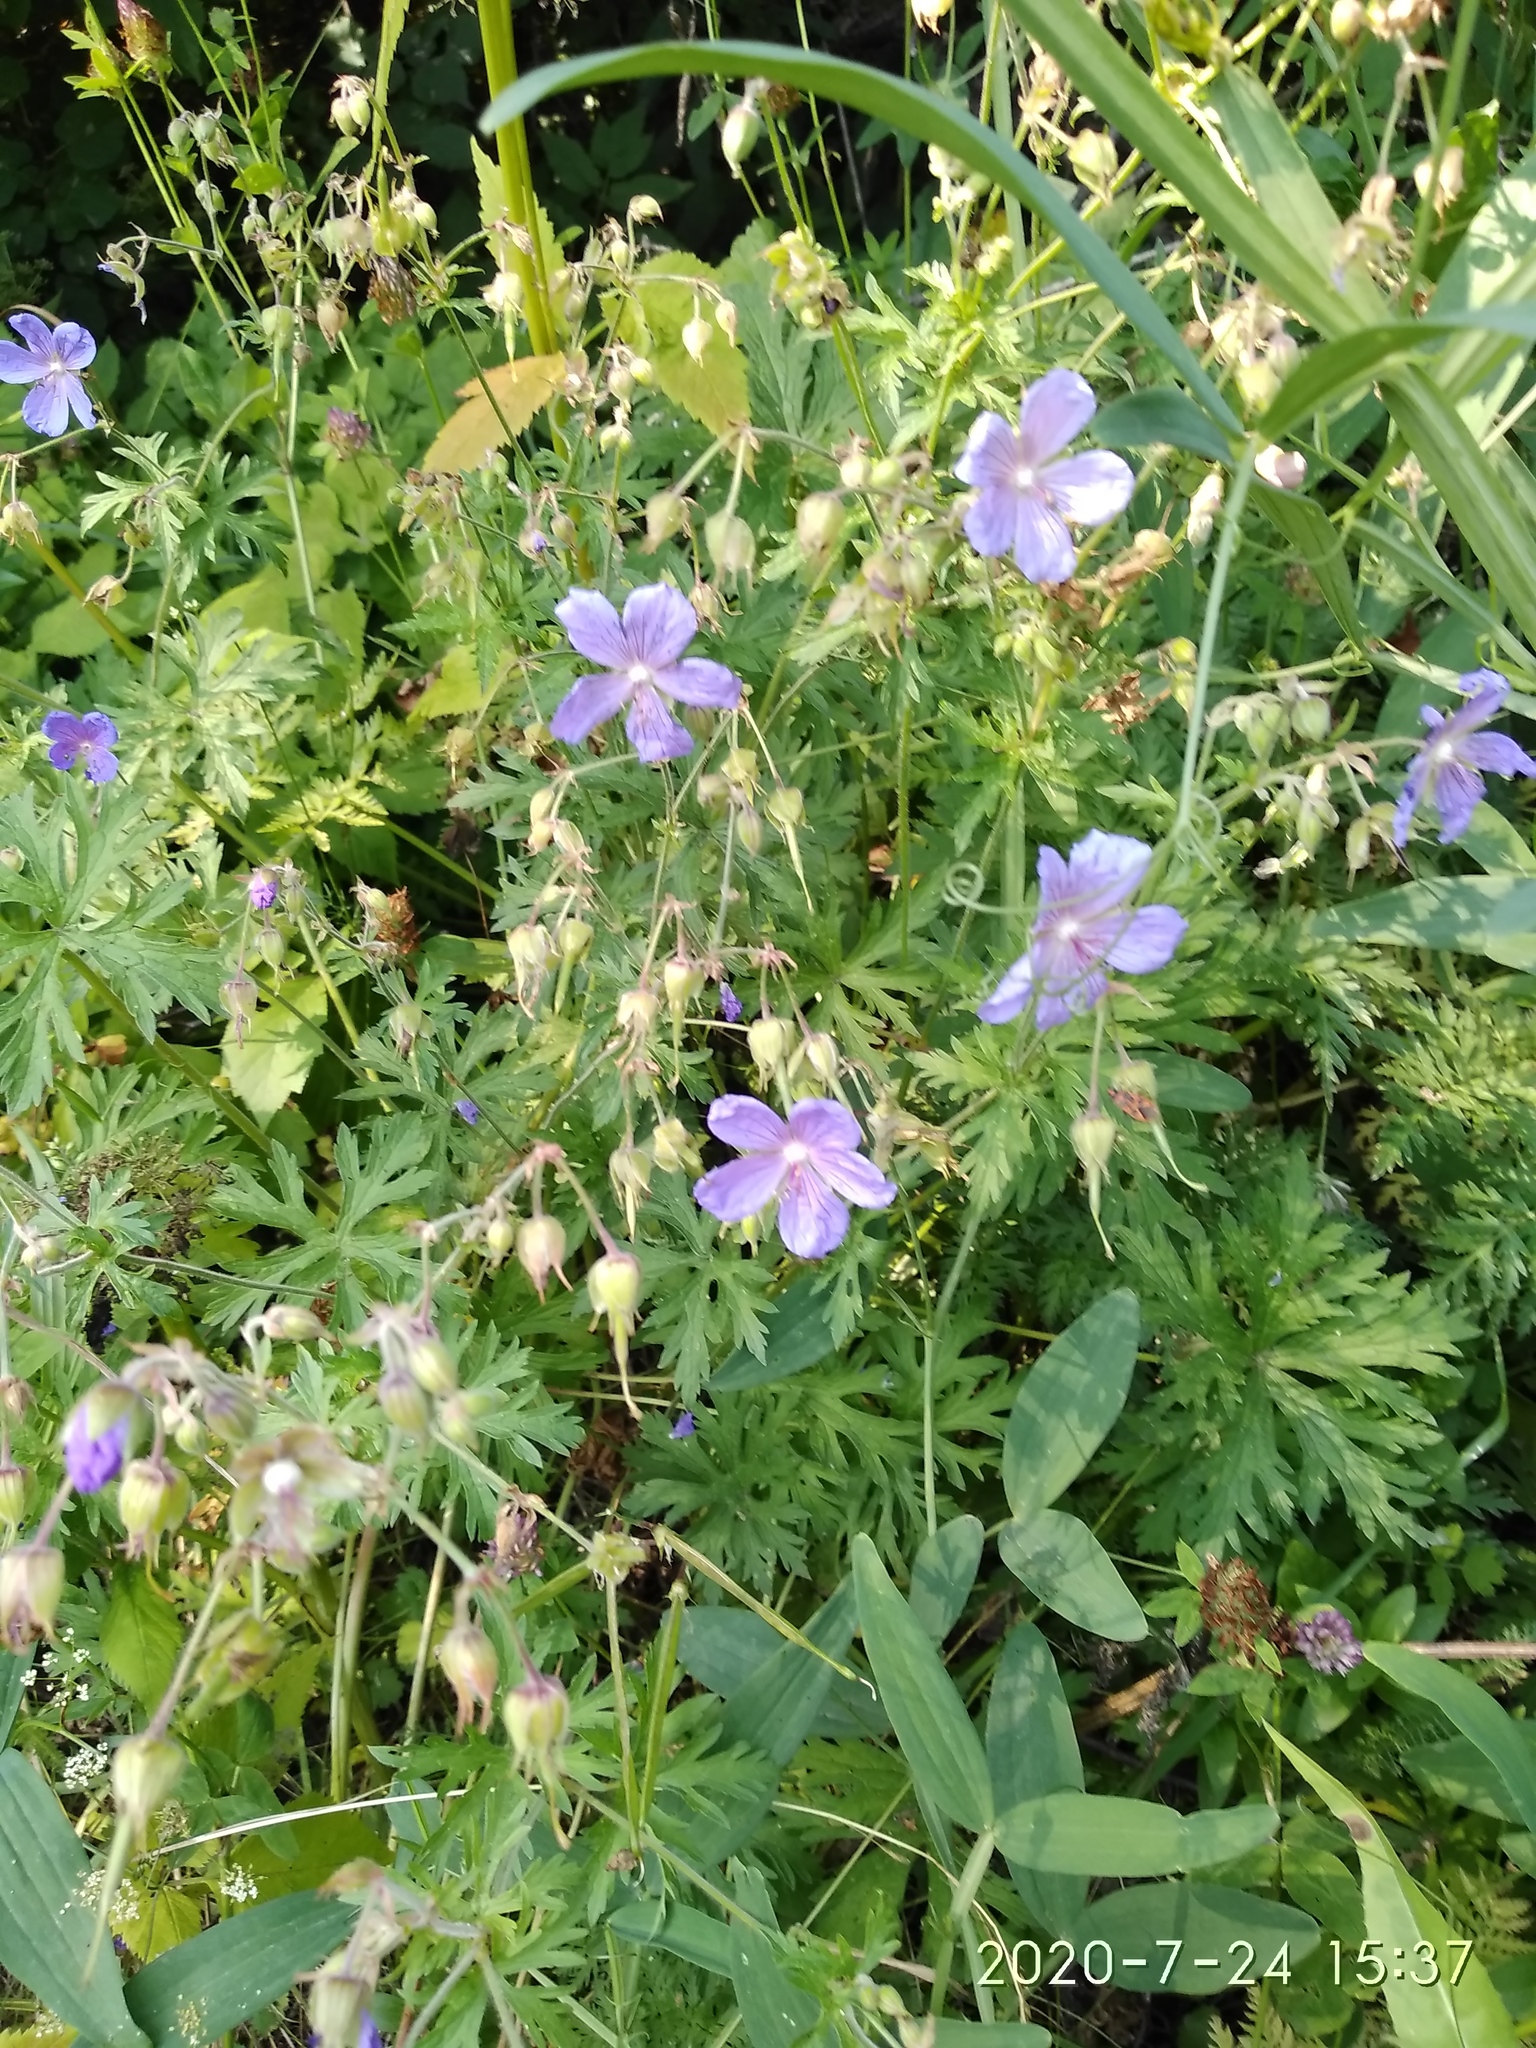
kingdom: Plantae
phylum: Tracheophyta
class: Magnoliopsida
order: Geraniales
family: Geraniaceae
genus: Geranium
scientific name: Geranium pratense
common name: Meadow crane's-bill
